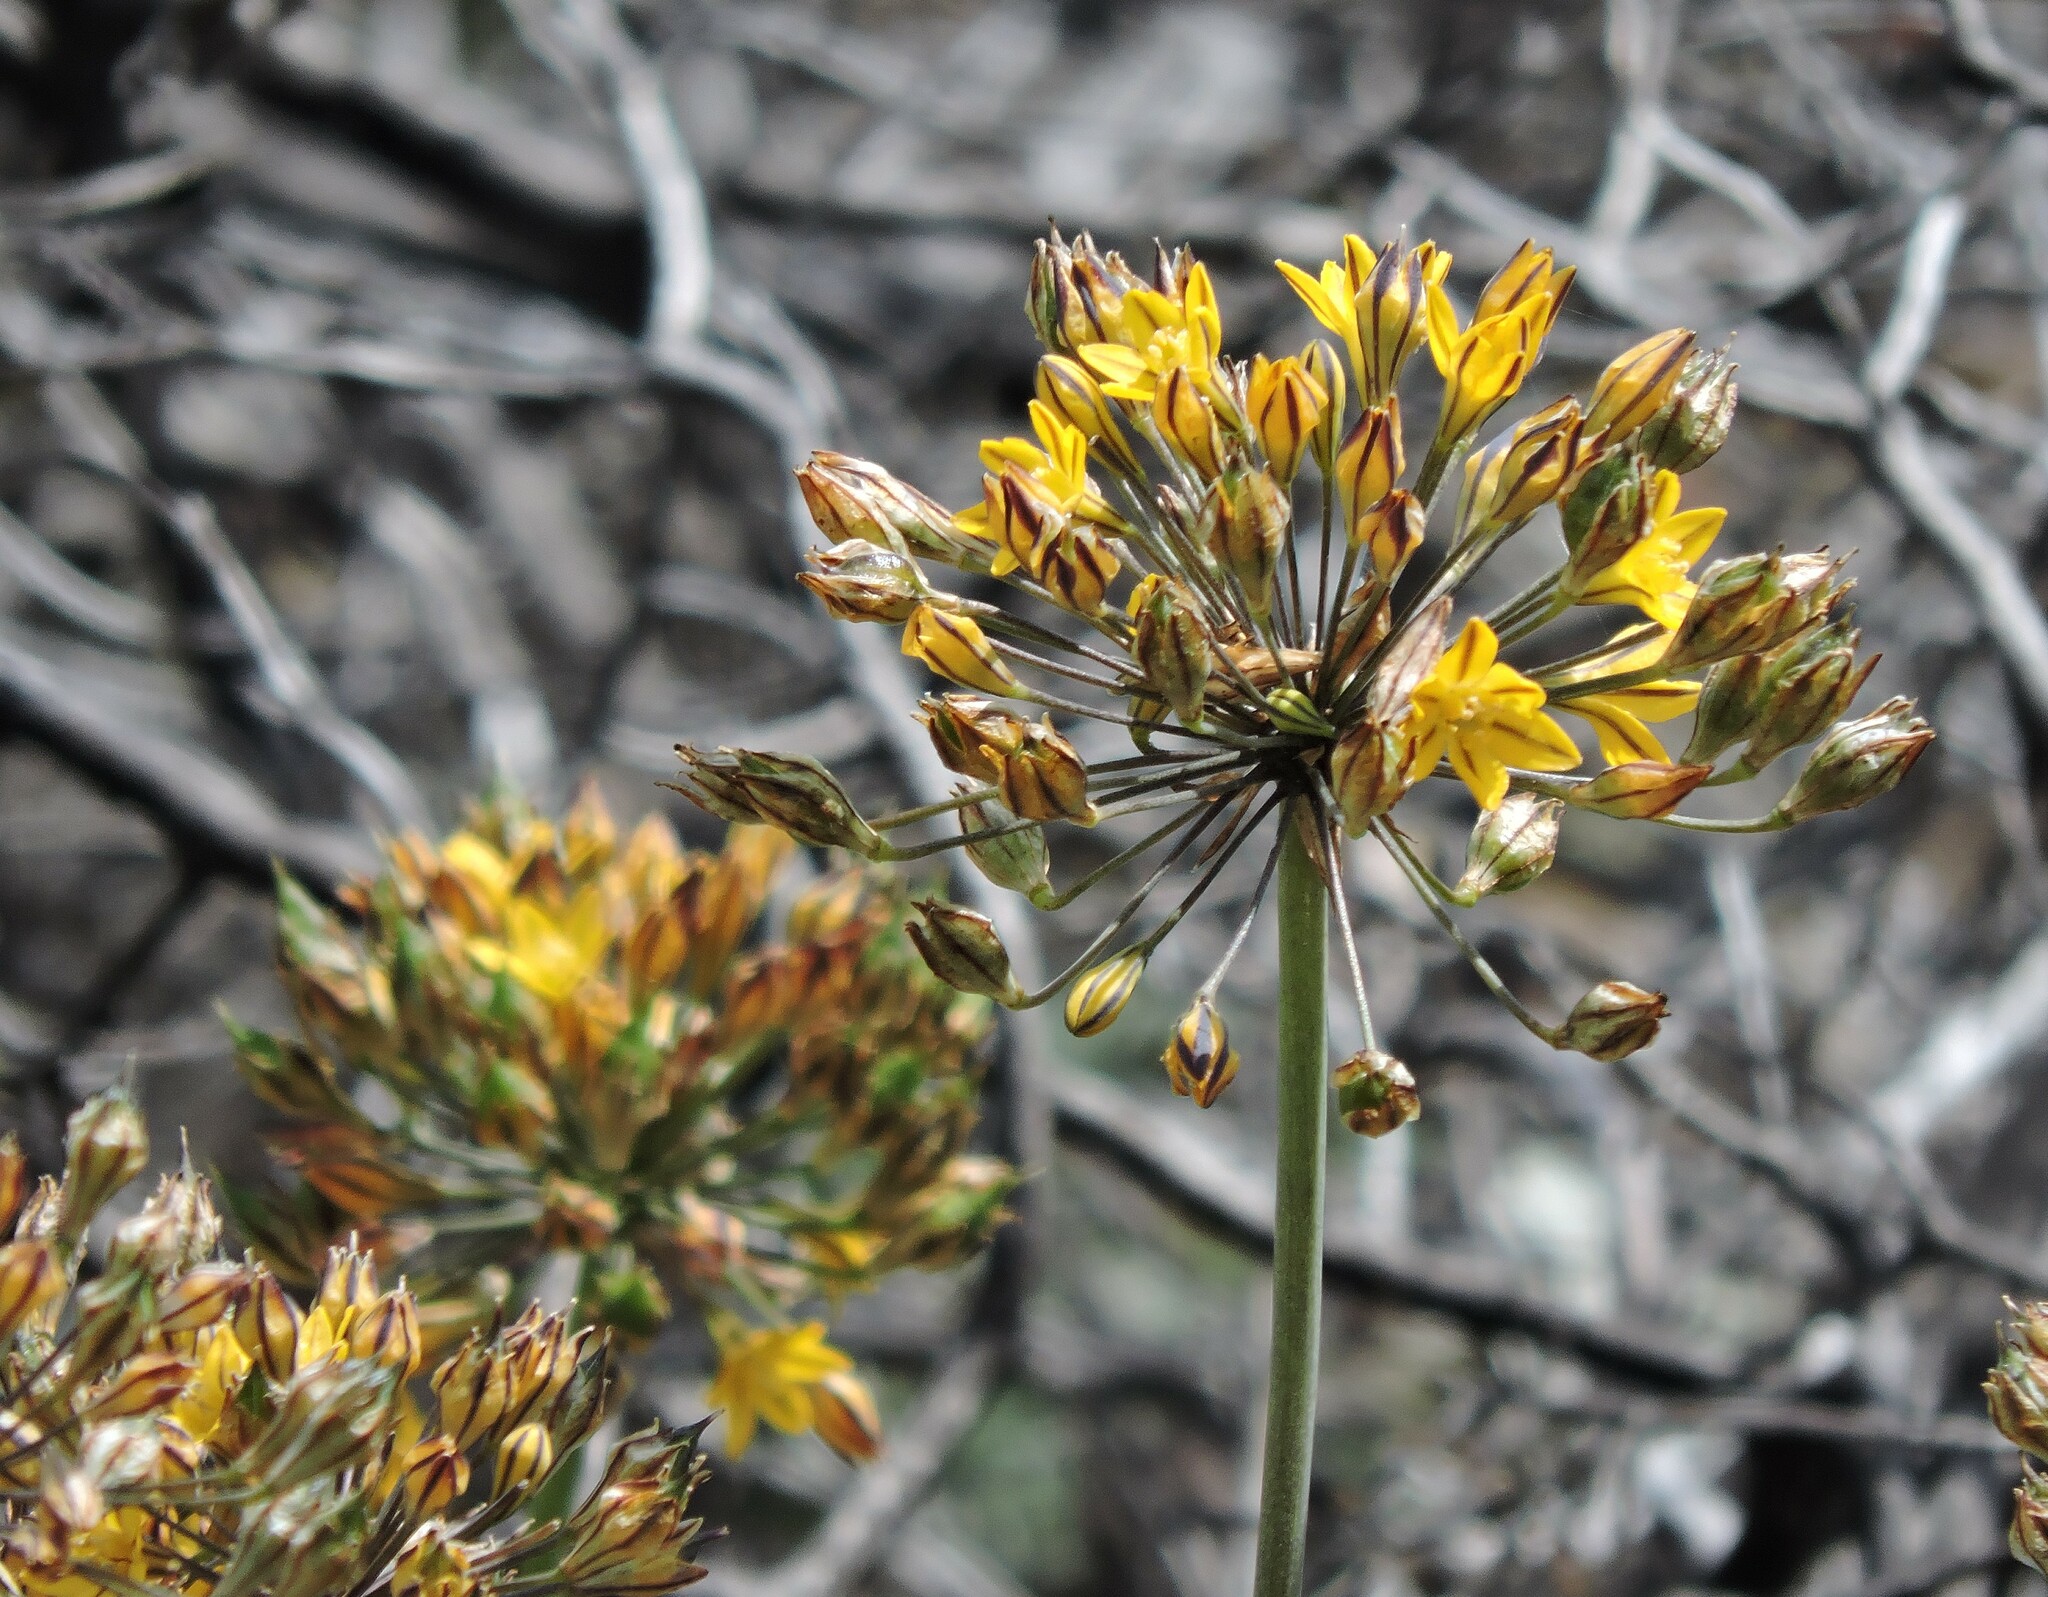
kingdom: Plantae
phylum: Tracheophyta
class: Liliopsida
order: Asparagales
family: Asparagaceae
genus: Triteleia
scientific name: Triteleia lugens
